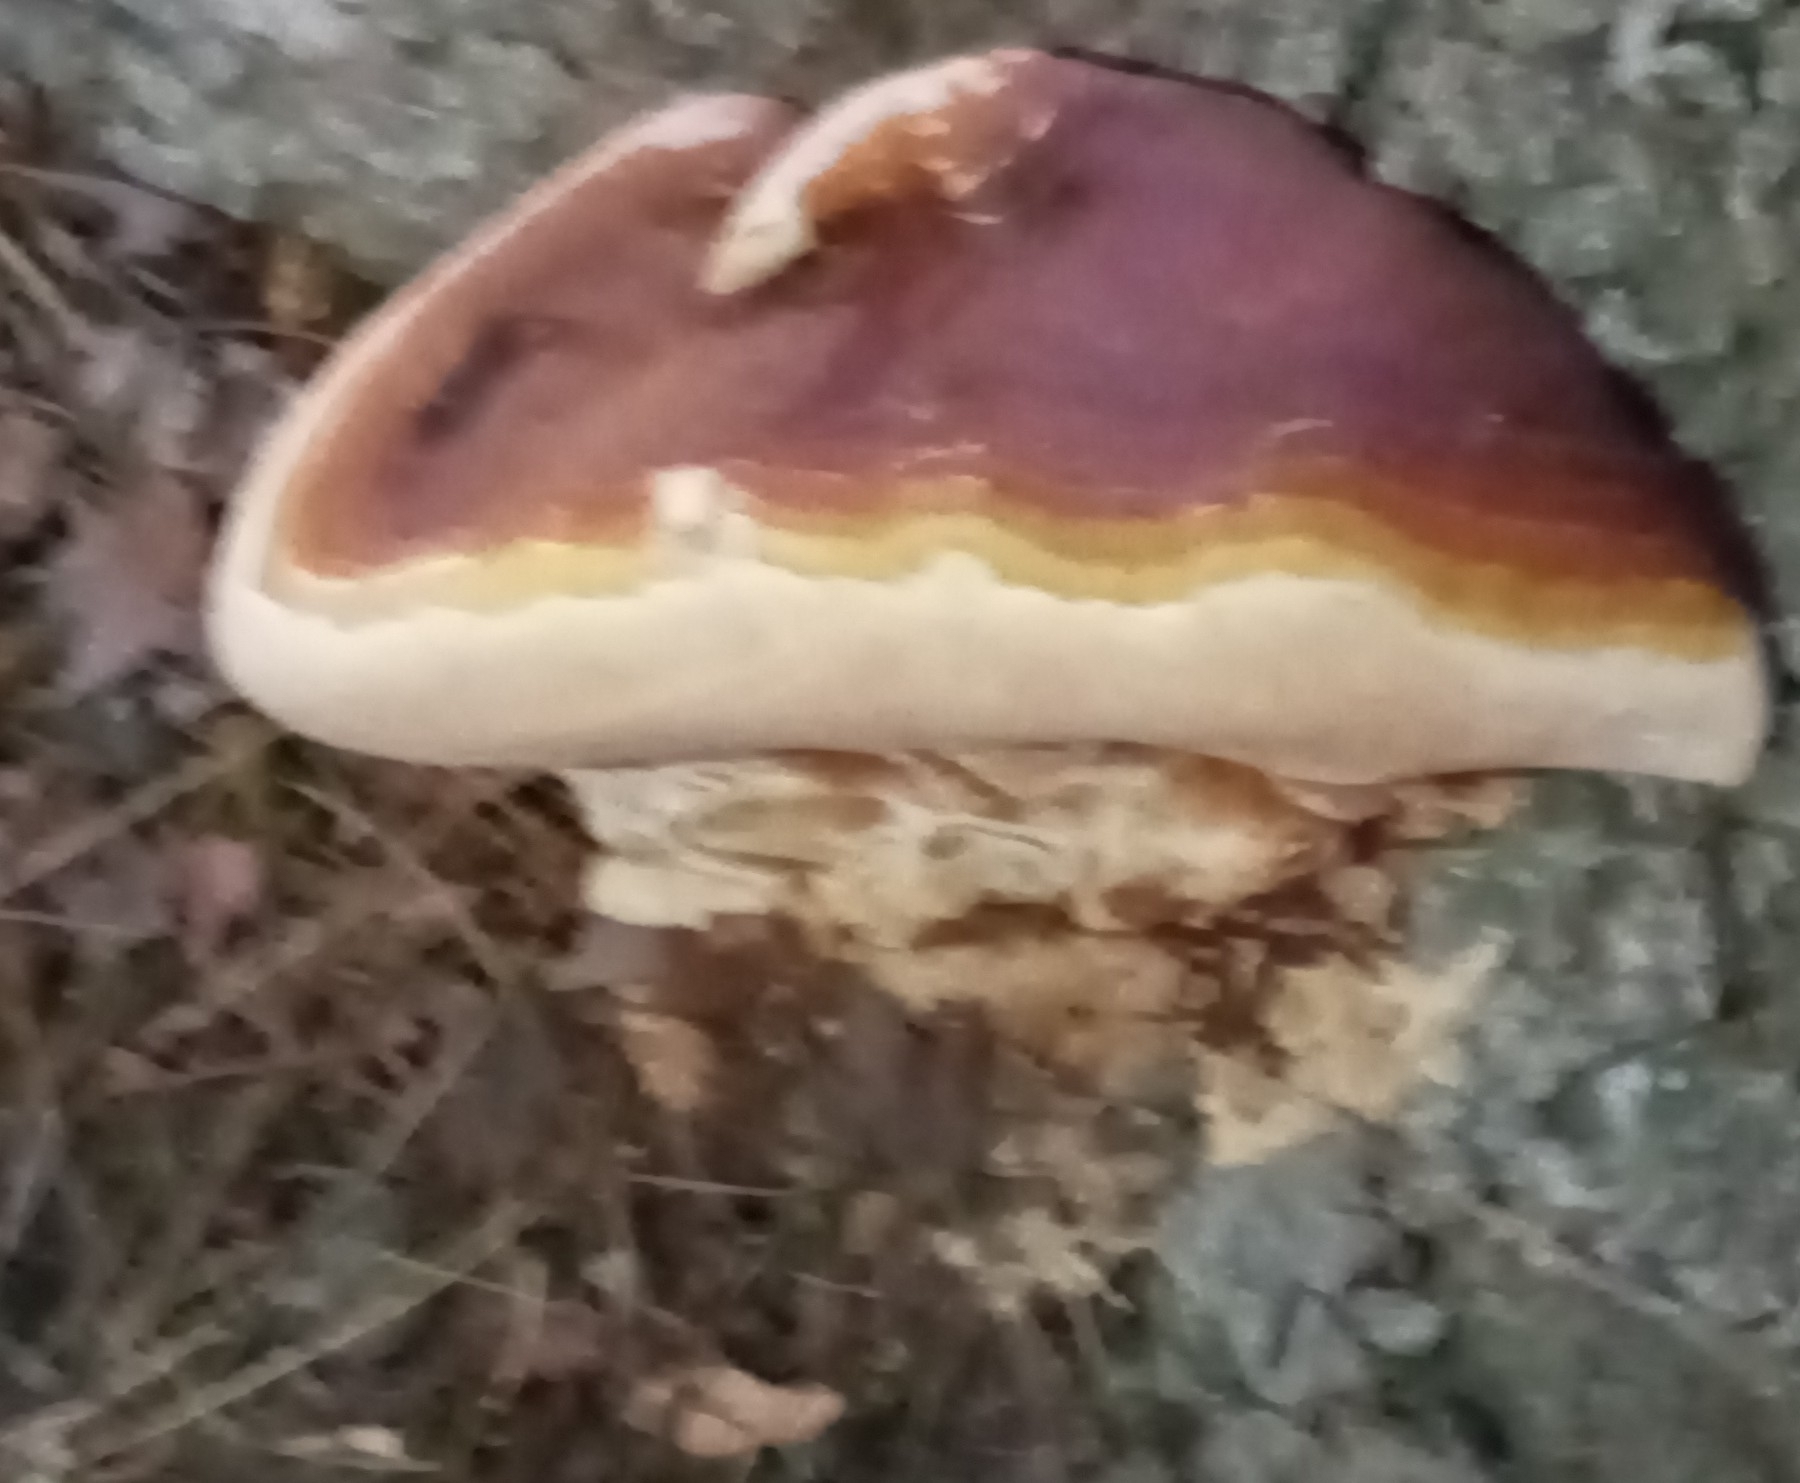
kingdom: Fungi
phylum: Basidiomycota
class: Agaricomycetes
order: Polyporales
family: Polyporaceae
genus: Ganoderma
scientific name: Ganoderma polychromum
